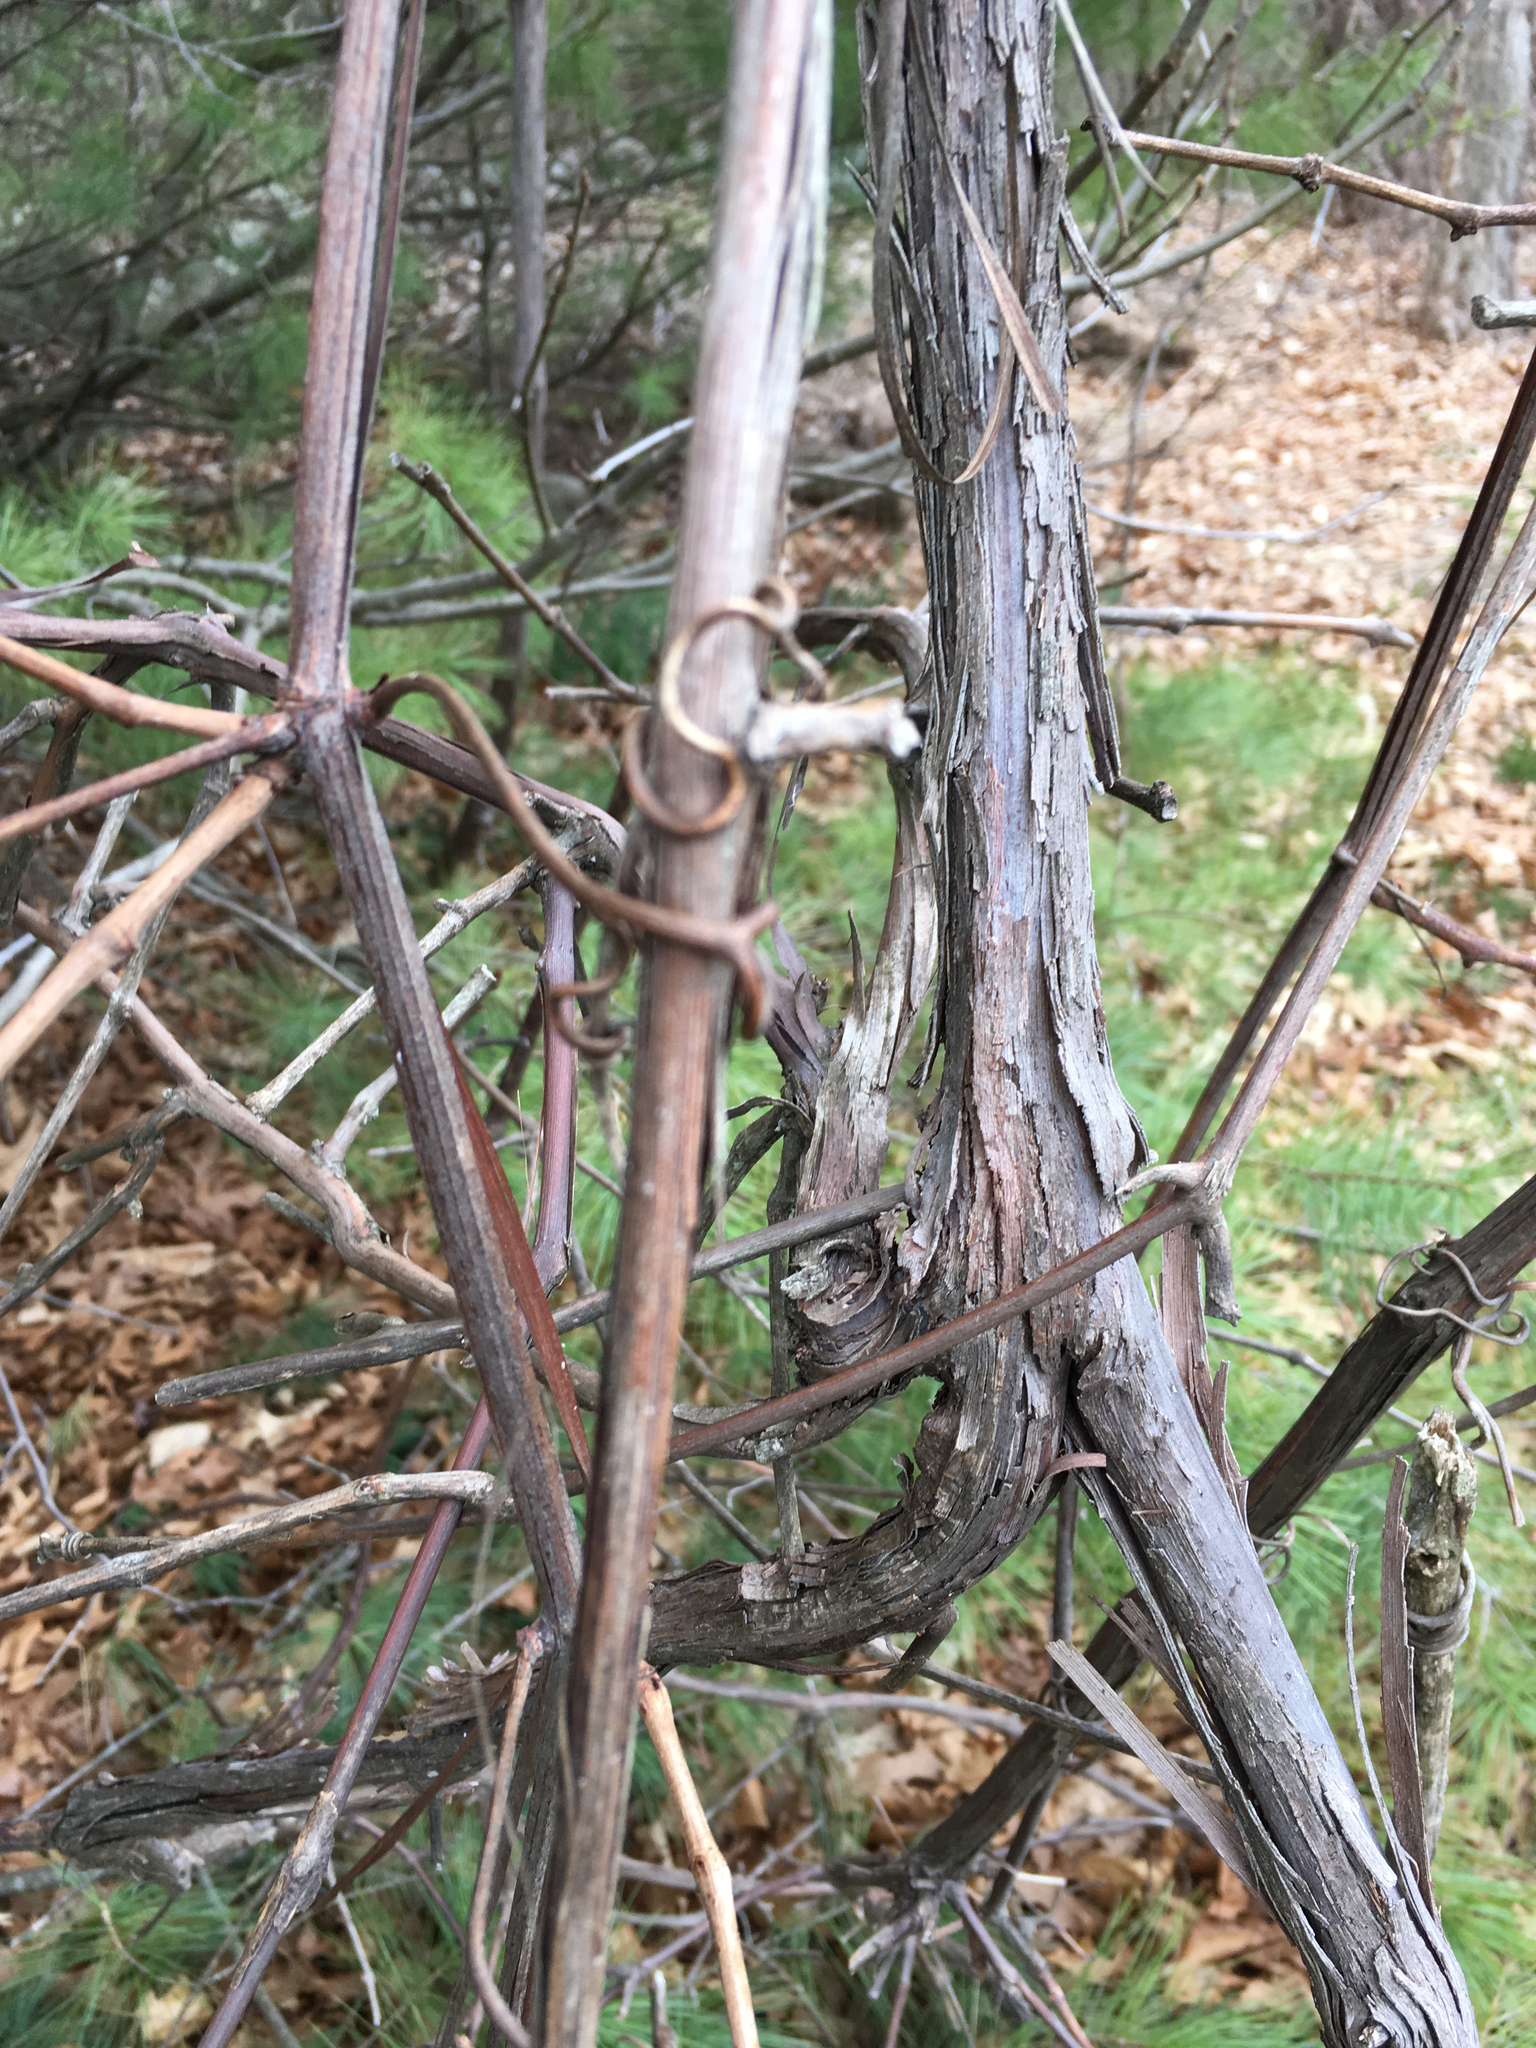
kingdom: Plantae
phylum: Tracheophyta
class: Magnoliopsida
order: Vitales
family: Vitaceae
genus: Vitis
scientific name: Vitis labrusca
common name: Concord grape
